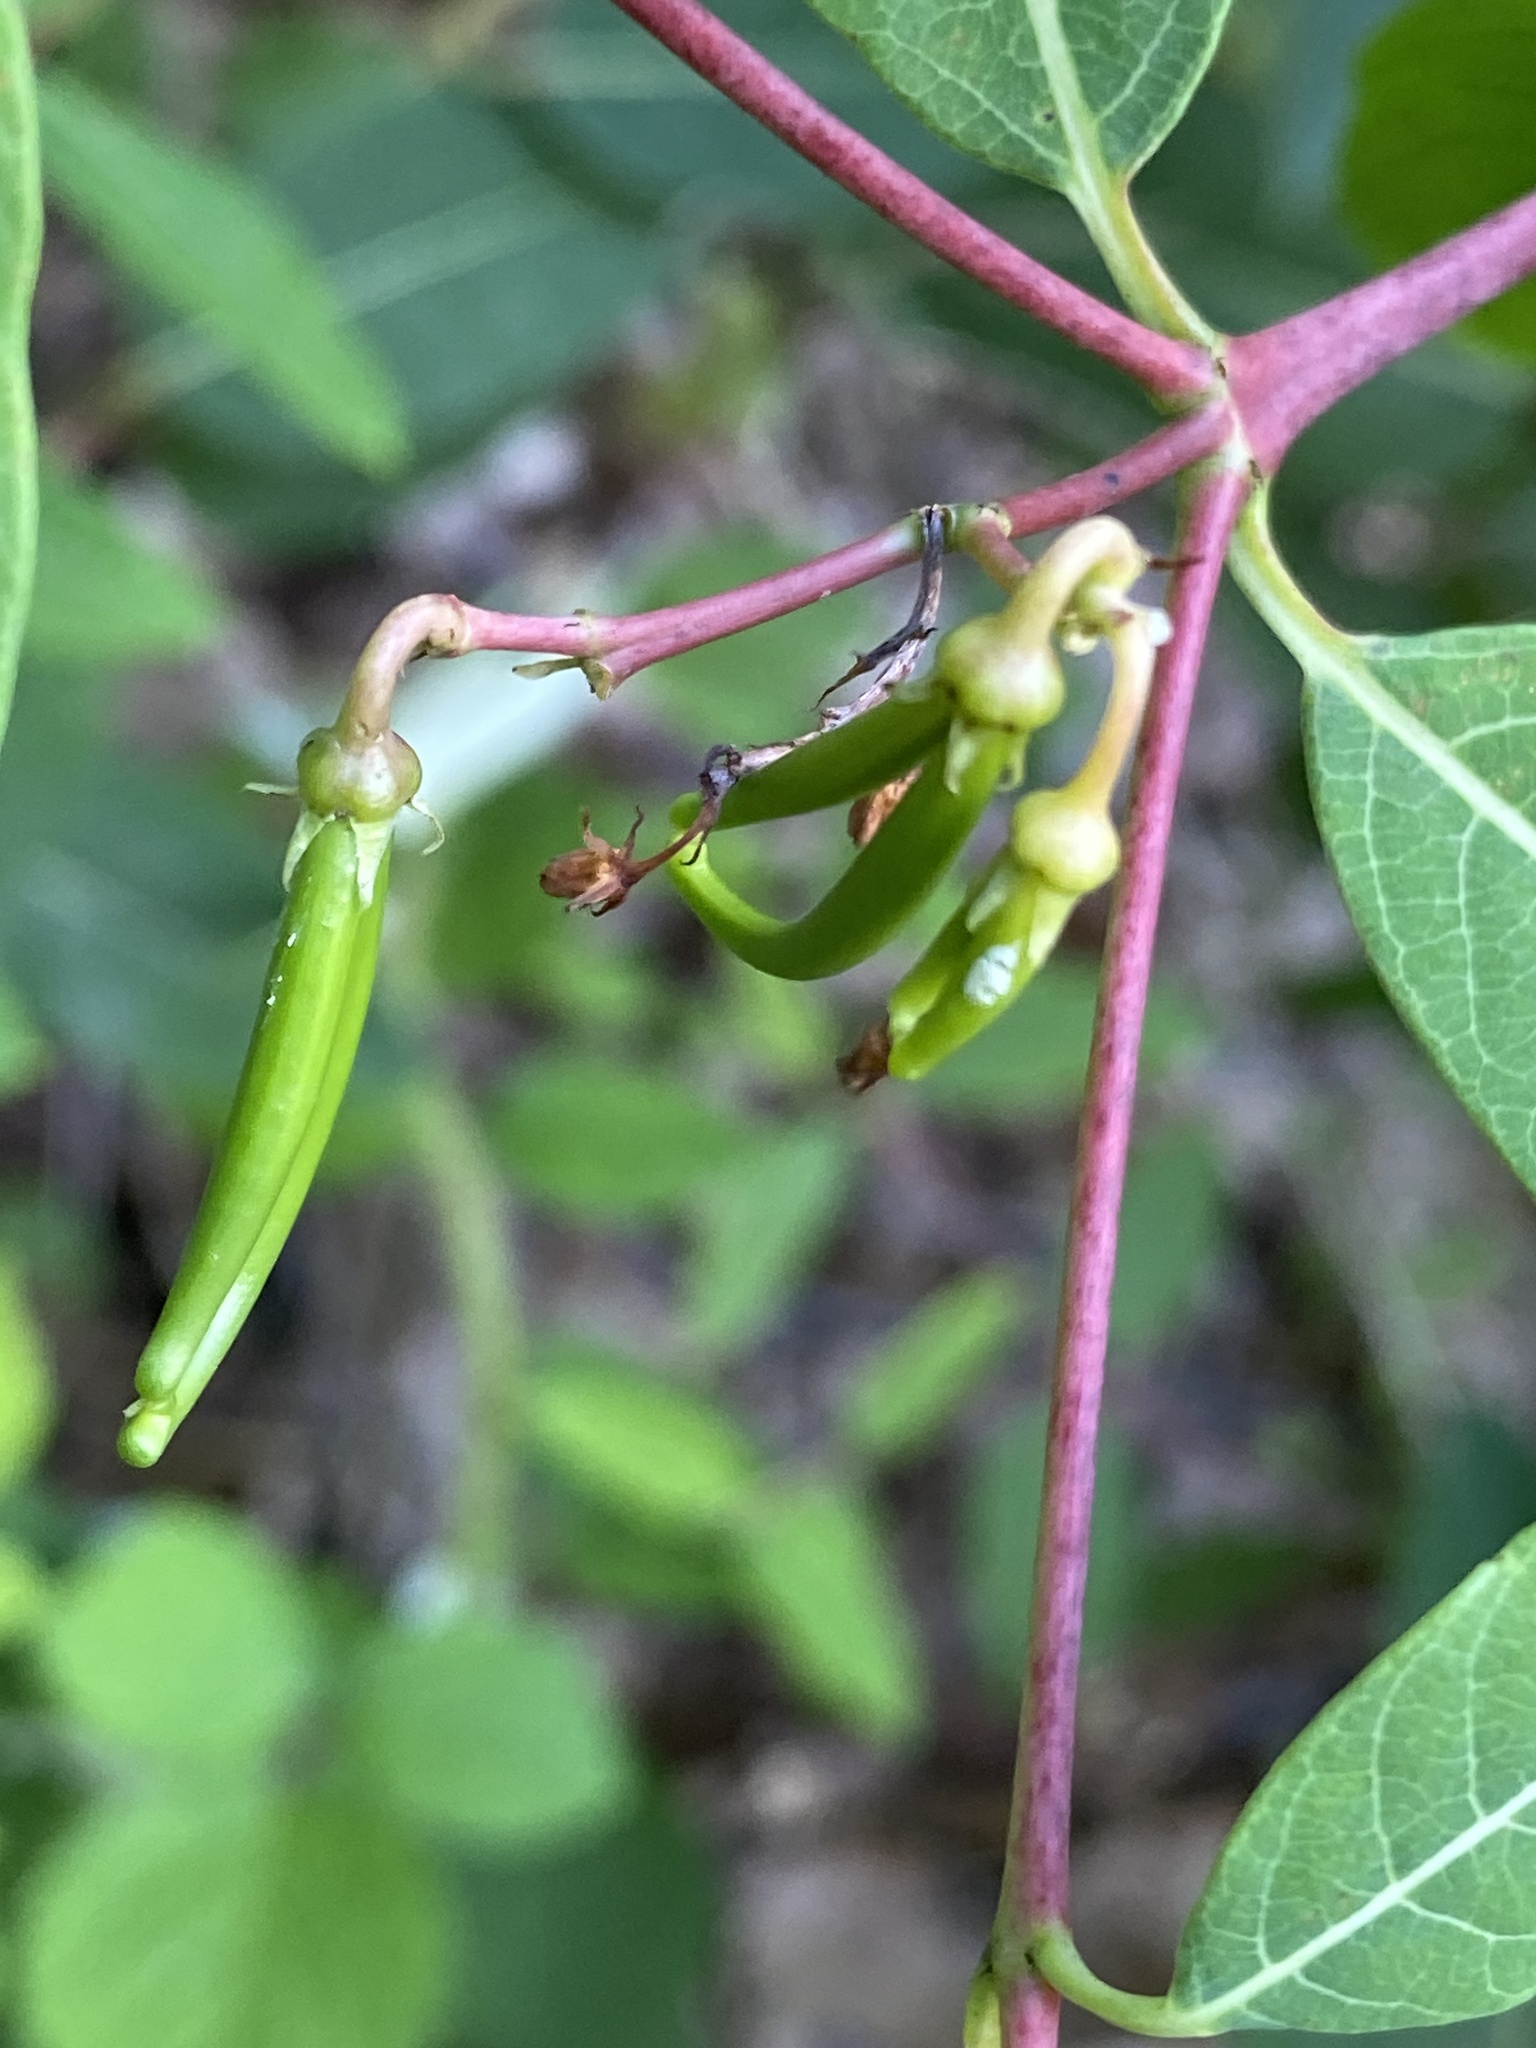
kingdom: Plantae
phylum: Tracheophyta
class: Magnoliopsida
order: Gentianales
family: Apocynaceae
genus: Apocynum
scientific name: Apocynum cannabinum
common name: Hemp dogbane
